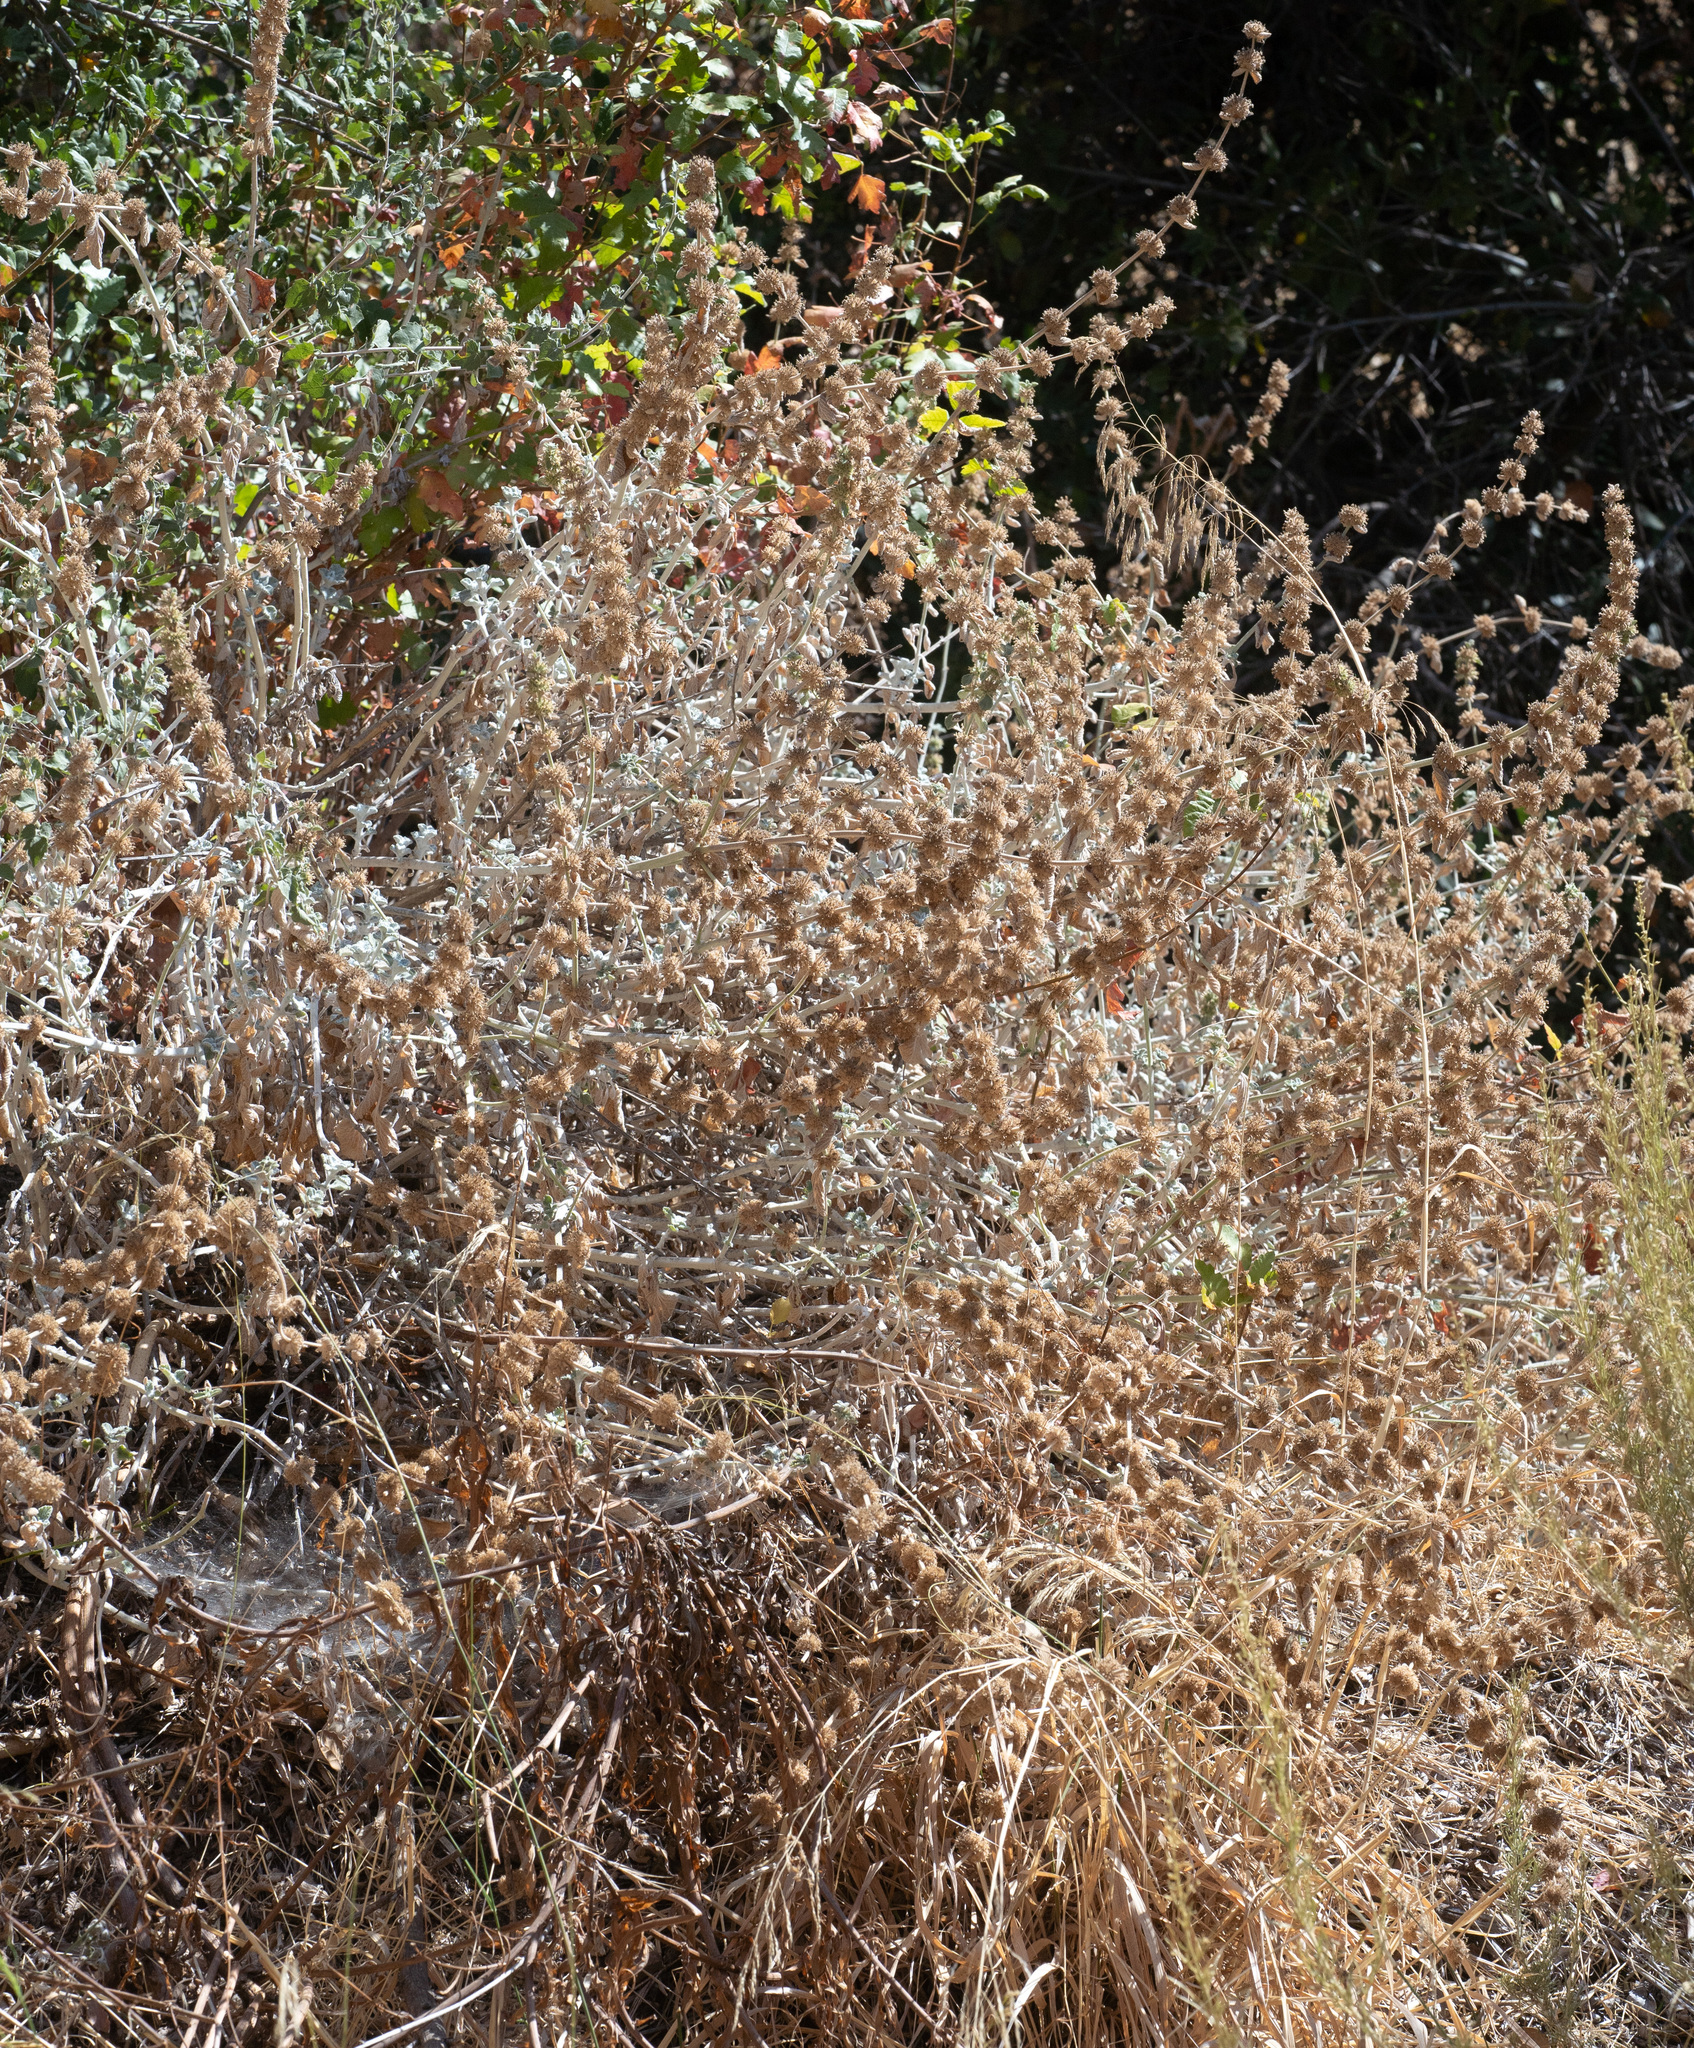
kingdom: Plantae
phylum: Tracheophyta
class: Magnoliopsida
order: Lamiales
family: Lamiaceae
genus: Marrubium
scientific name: Marrubium vulgare
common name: Horehound
